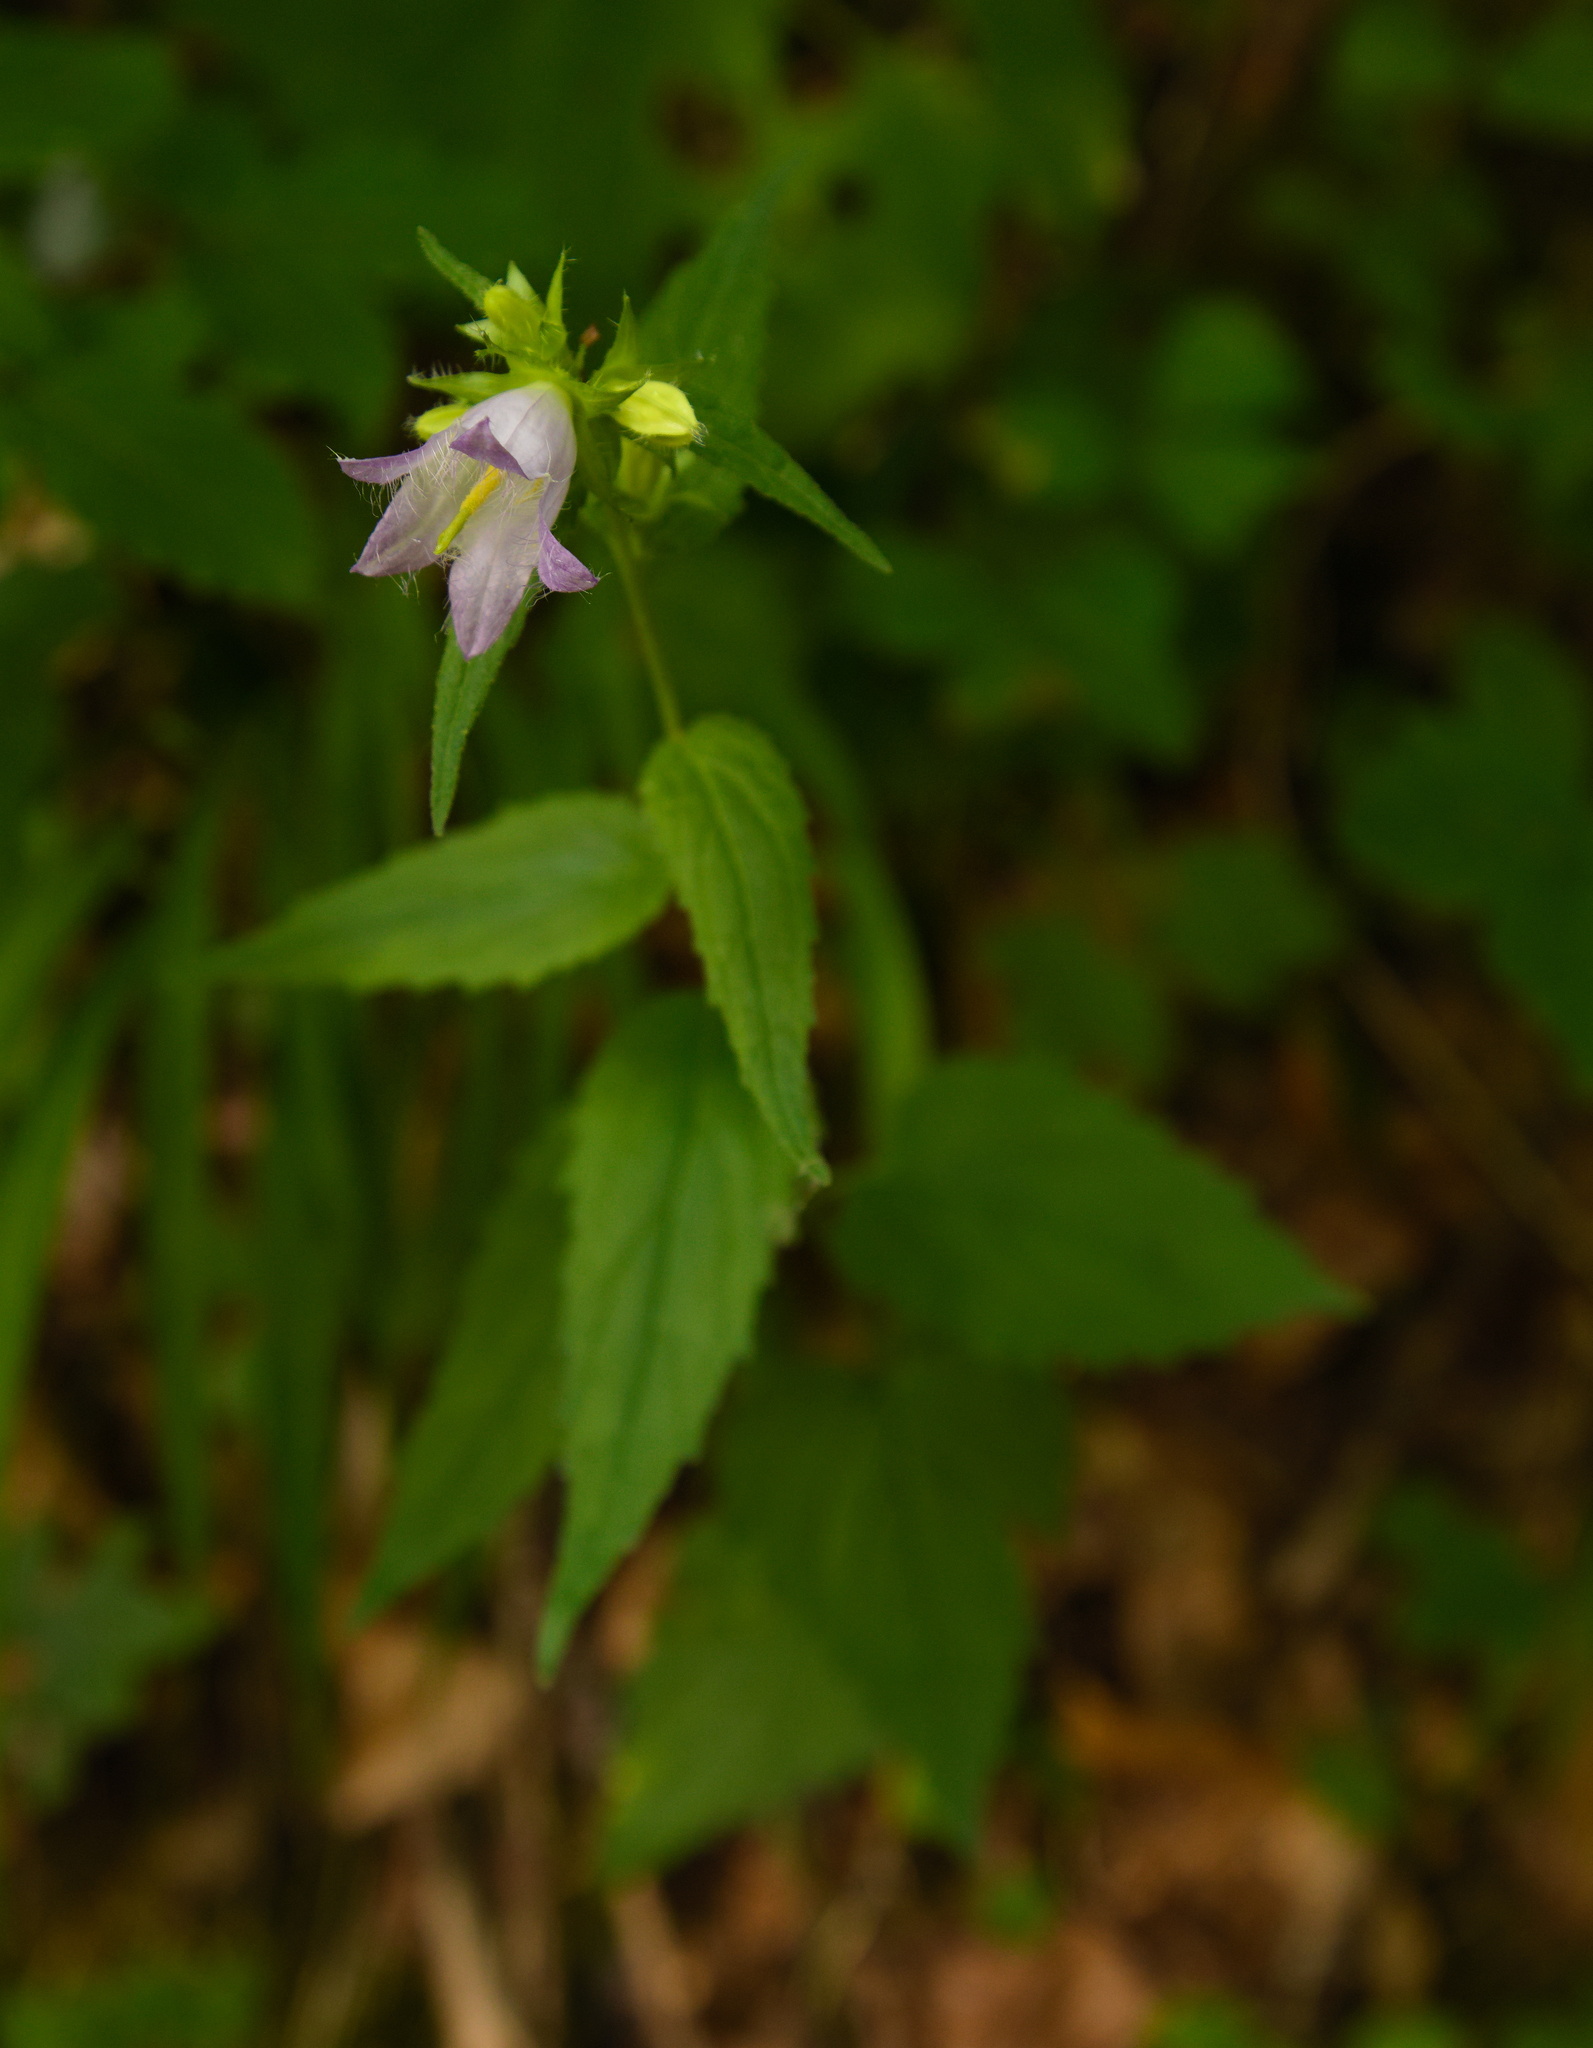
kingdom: Plantae
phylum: Tracheophyta
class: Magnoliopsida
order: Asterales
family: Campanulaceae
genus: Campanula
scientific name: Campanula trachelium
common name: Nettle-leaved bellflower
